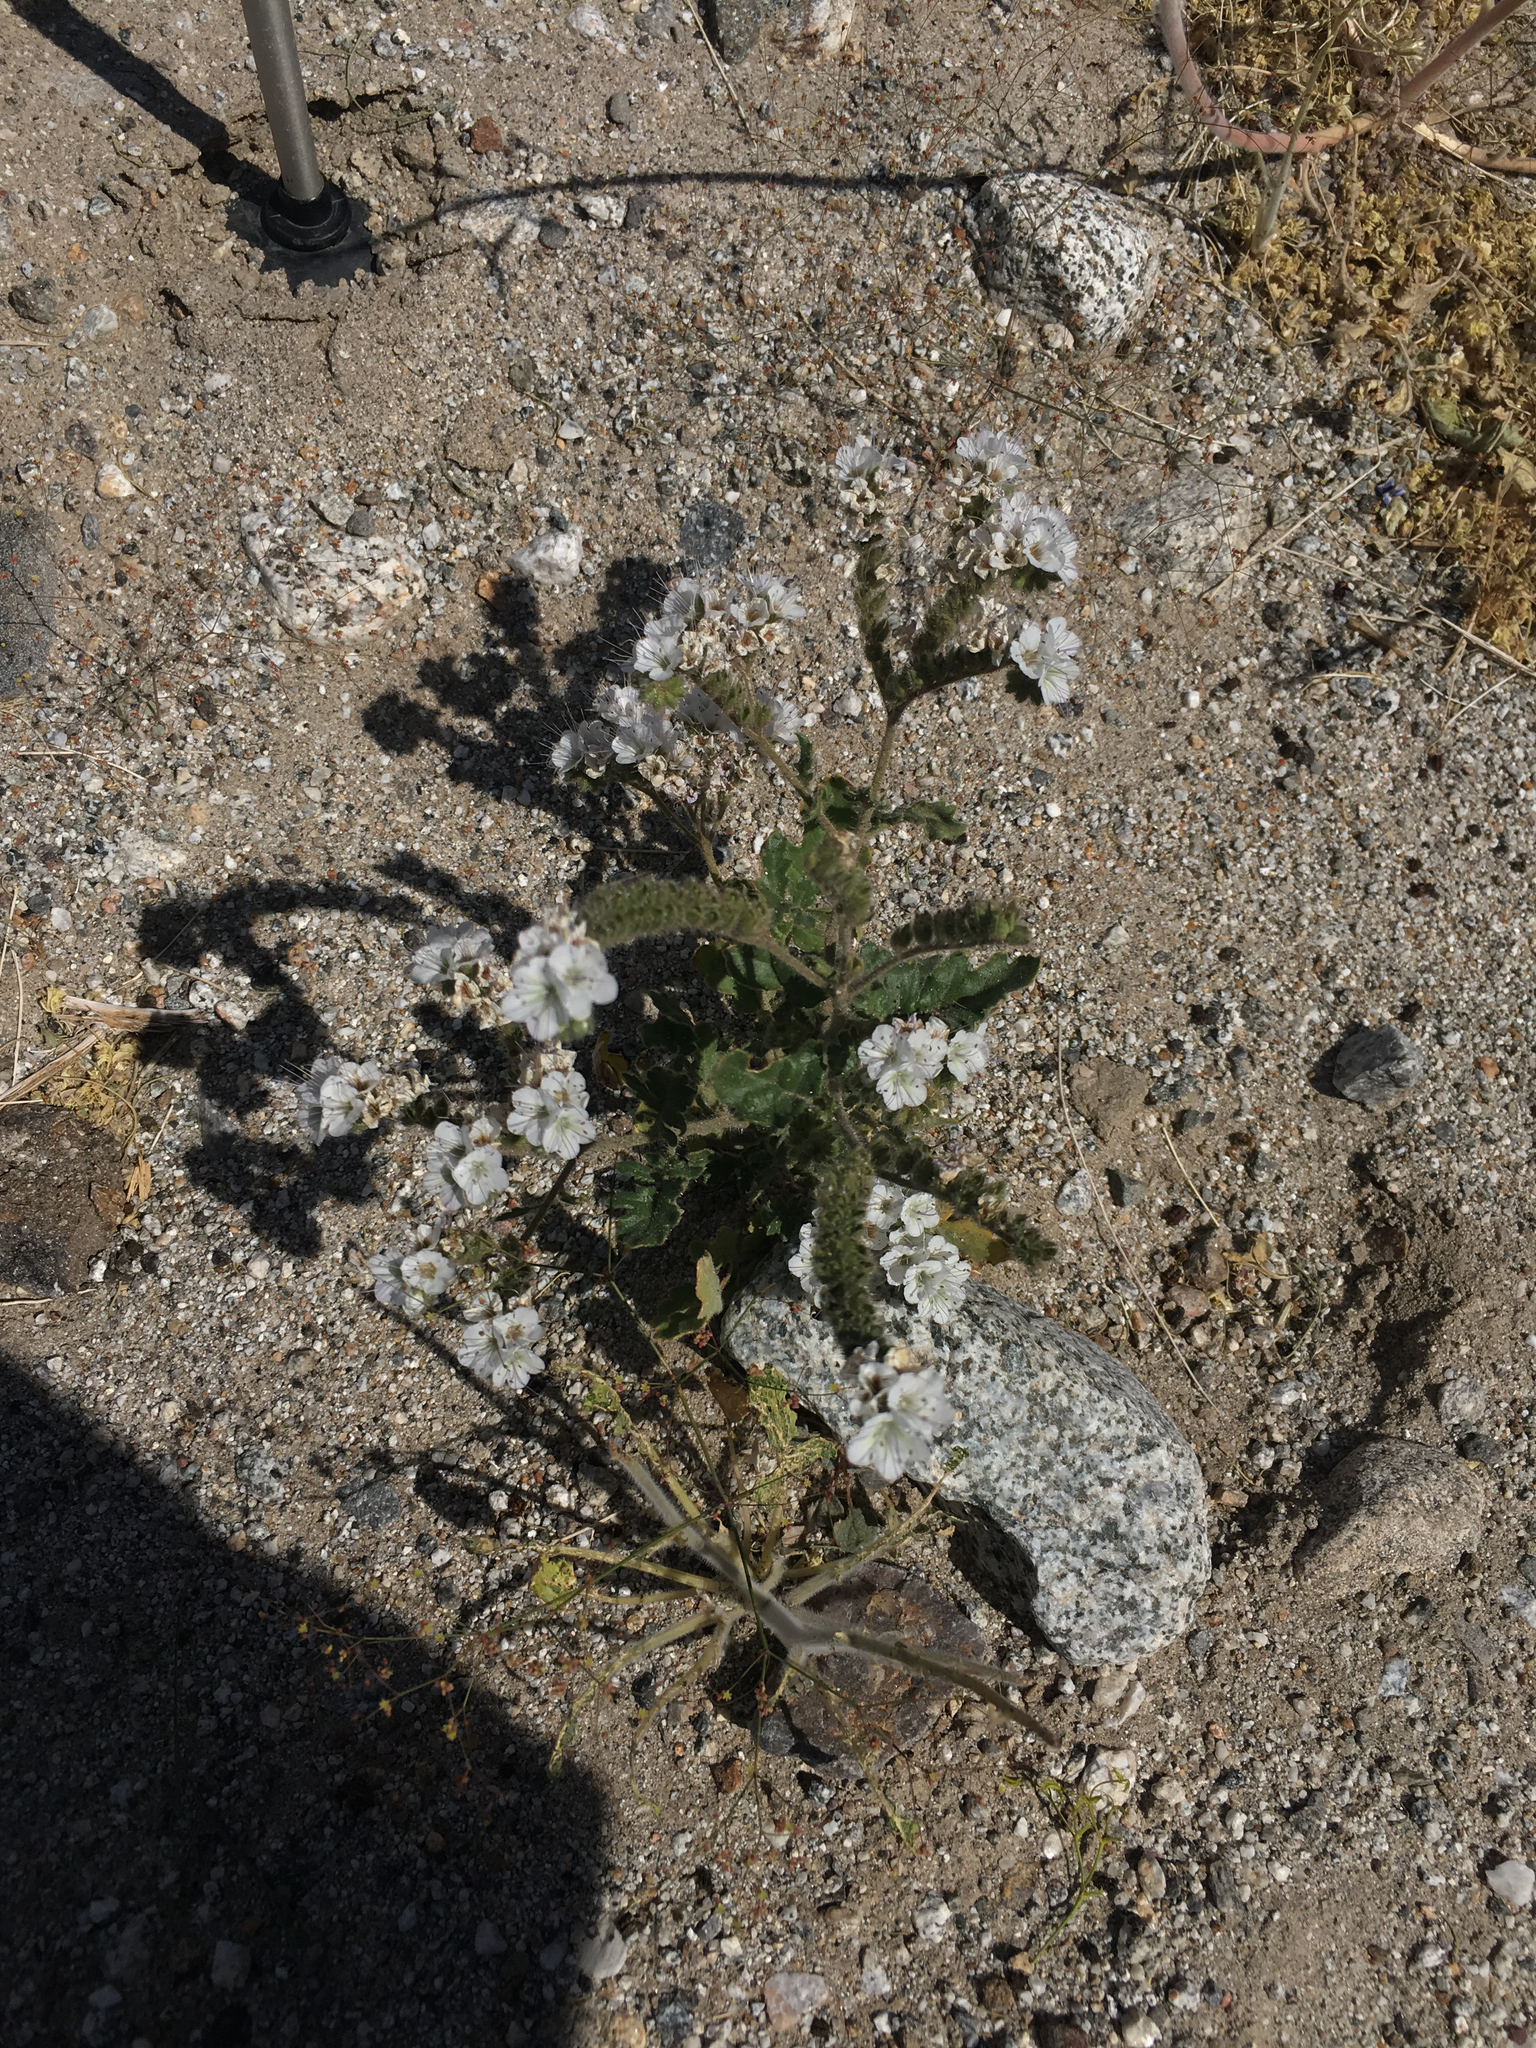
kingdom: Plantae
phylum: Tracheophyta
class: Magnoliopsida
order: Boraginales
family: Hydrophyllaceae
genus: Phacelia
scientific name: Phacelia crenulata
